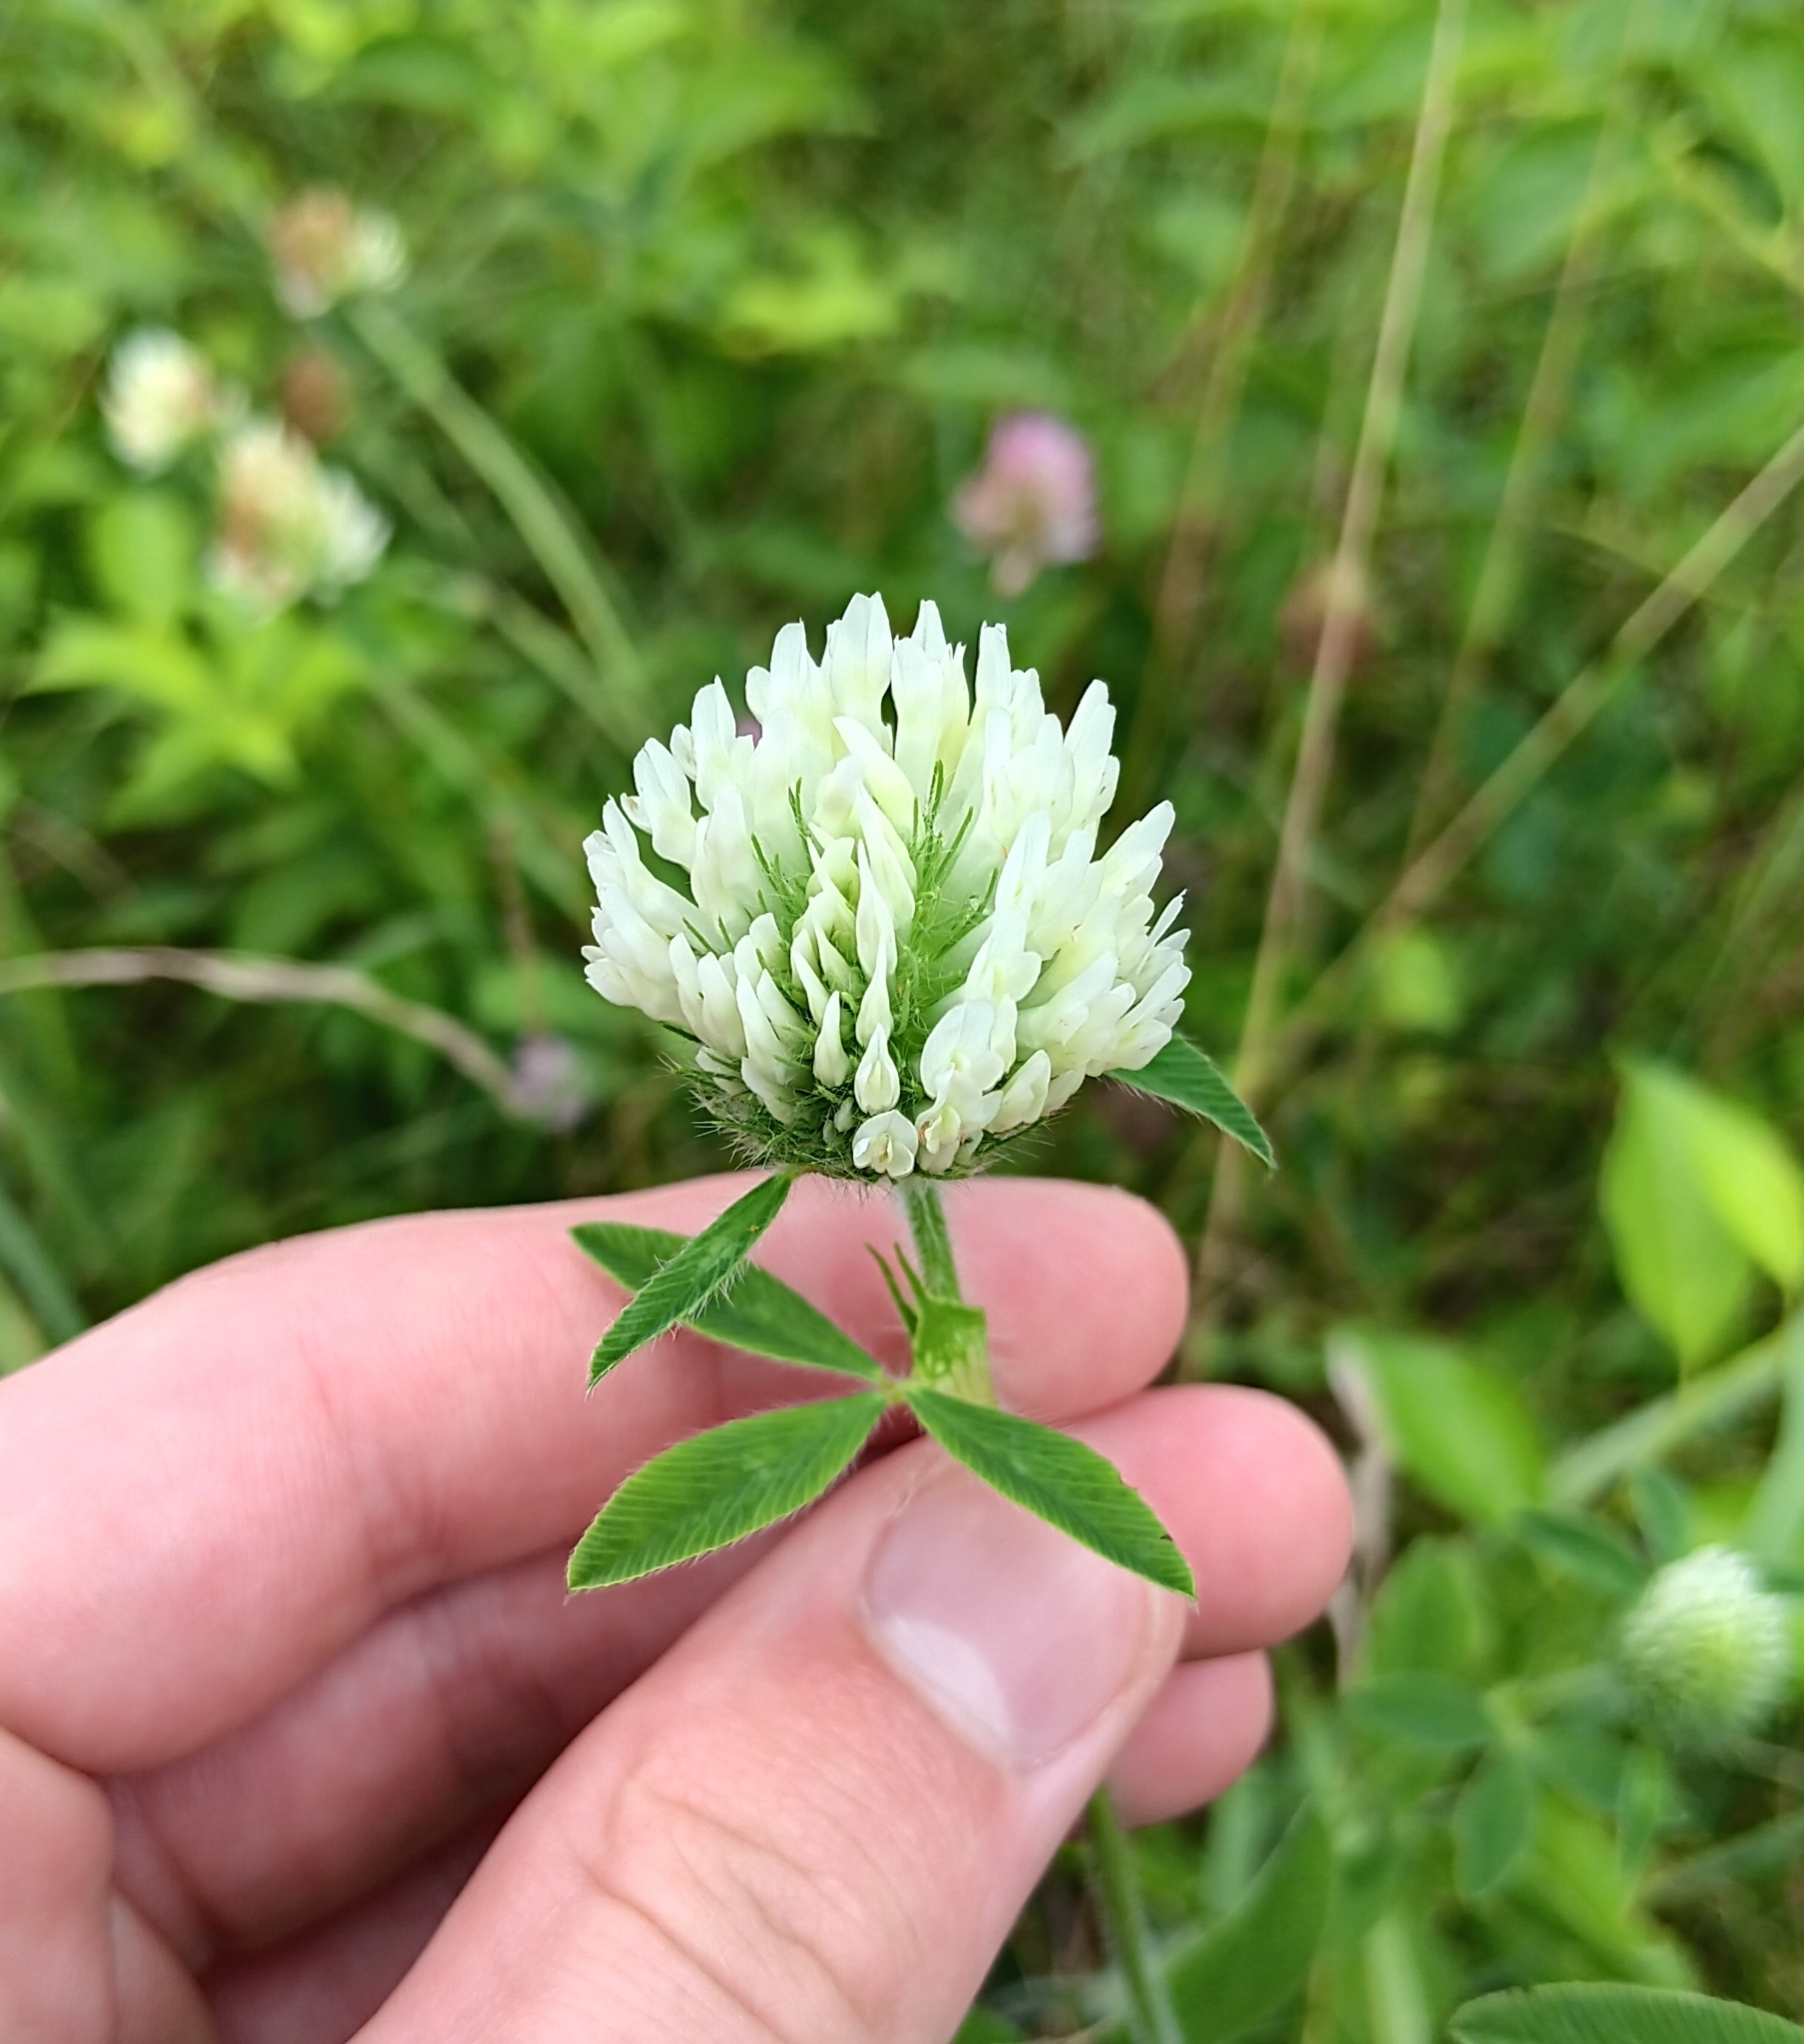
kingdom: Plantae
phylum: Tracheophyta
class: Magnoliopsida
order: Fabales
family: Fabaceae
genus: Trifolium
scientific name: Trifolium pratense
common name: Red clover
